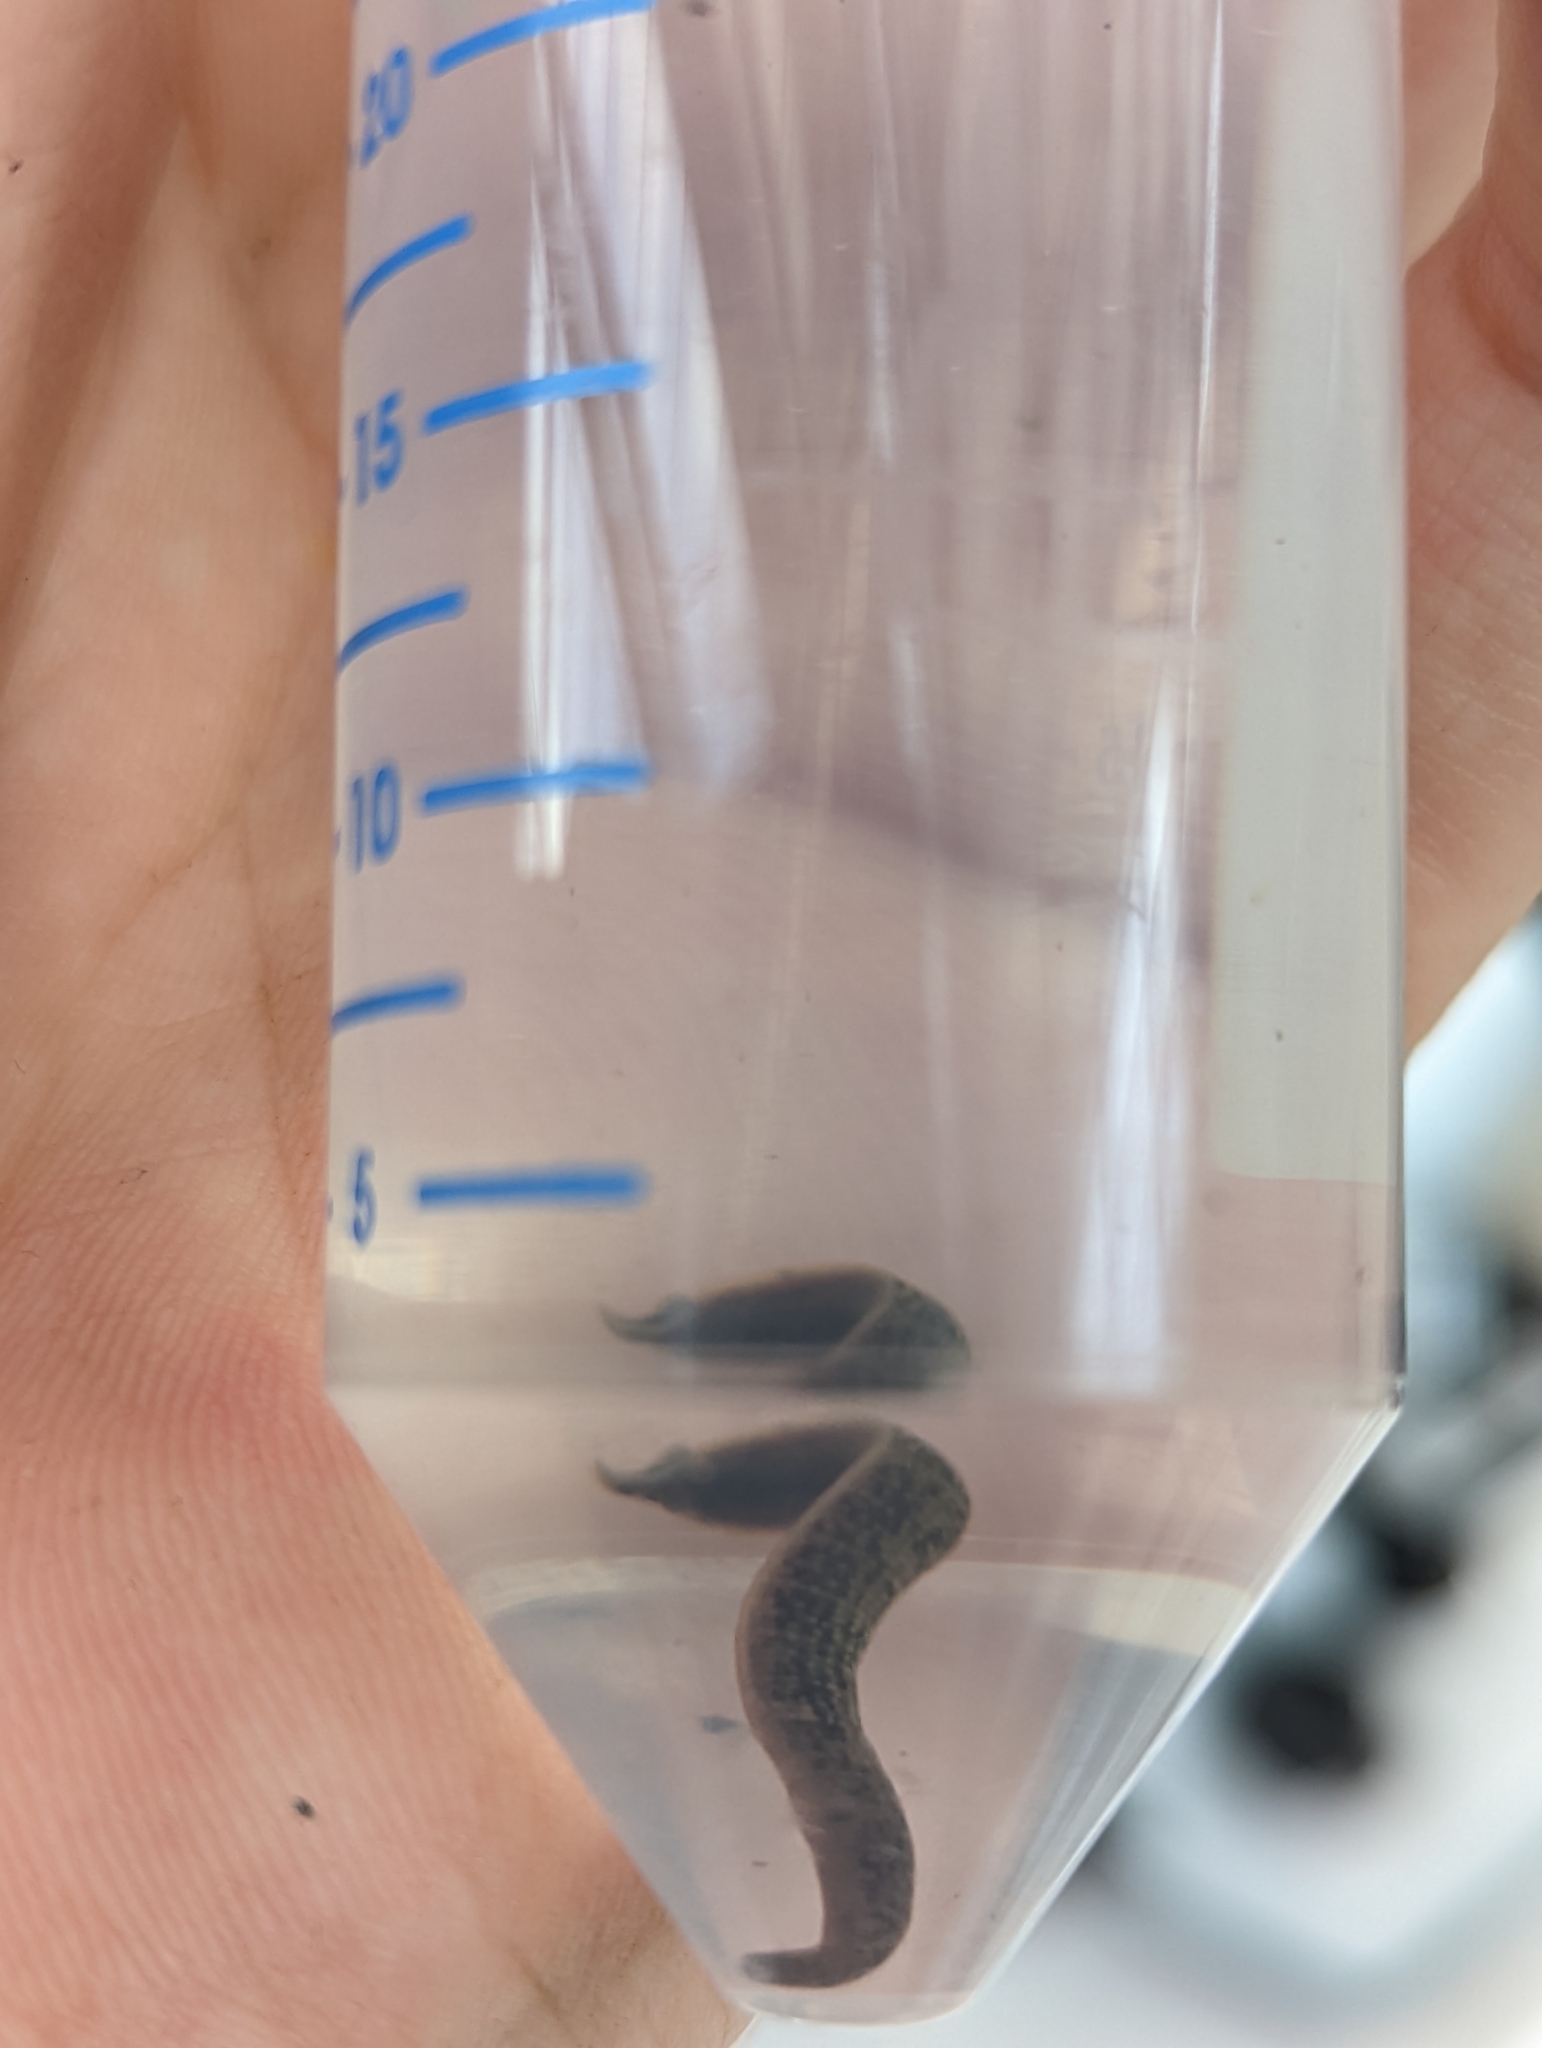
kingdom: Animalia
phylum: Annelida
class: Clitellata
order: Arhynchobdellida
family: Erpobdellidae
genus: Erpobdella
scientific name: Erpobdella octoculata
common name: Leeches
